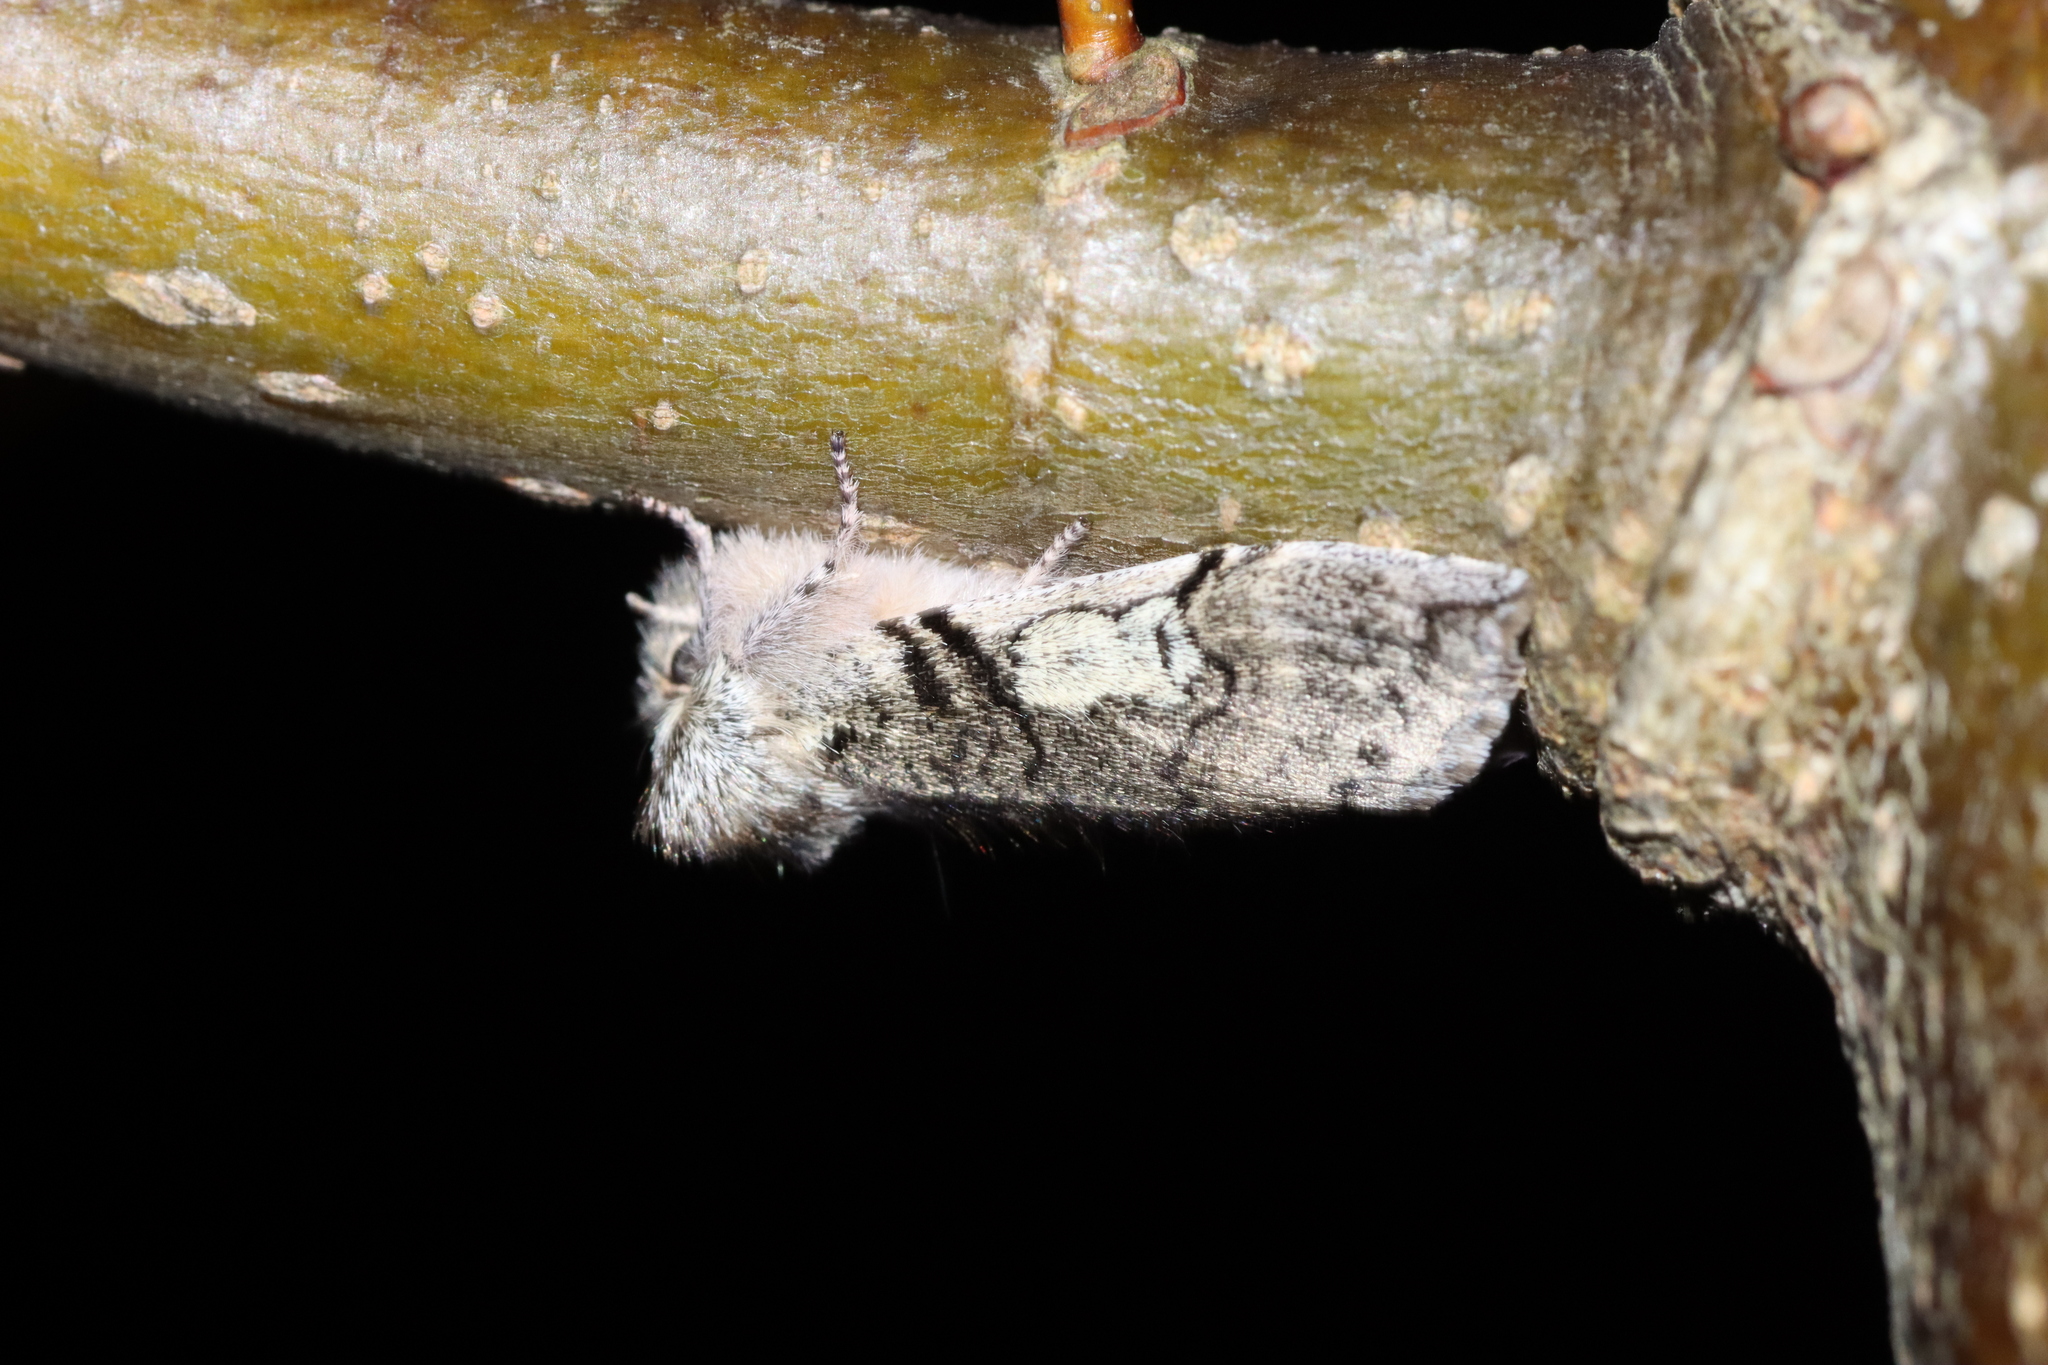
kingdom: Animalia
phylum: Arthropoda
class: Insecta
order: Lepidoptera
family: Drepanidae
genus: Achlya
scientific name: Achlya flavicornis
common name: Yellow horned
